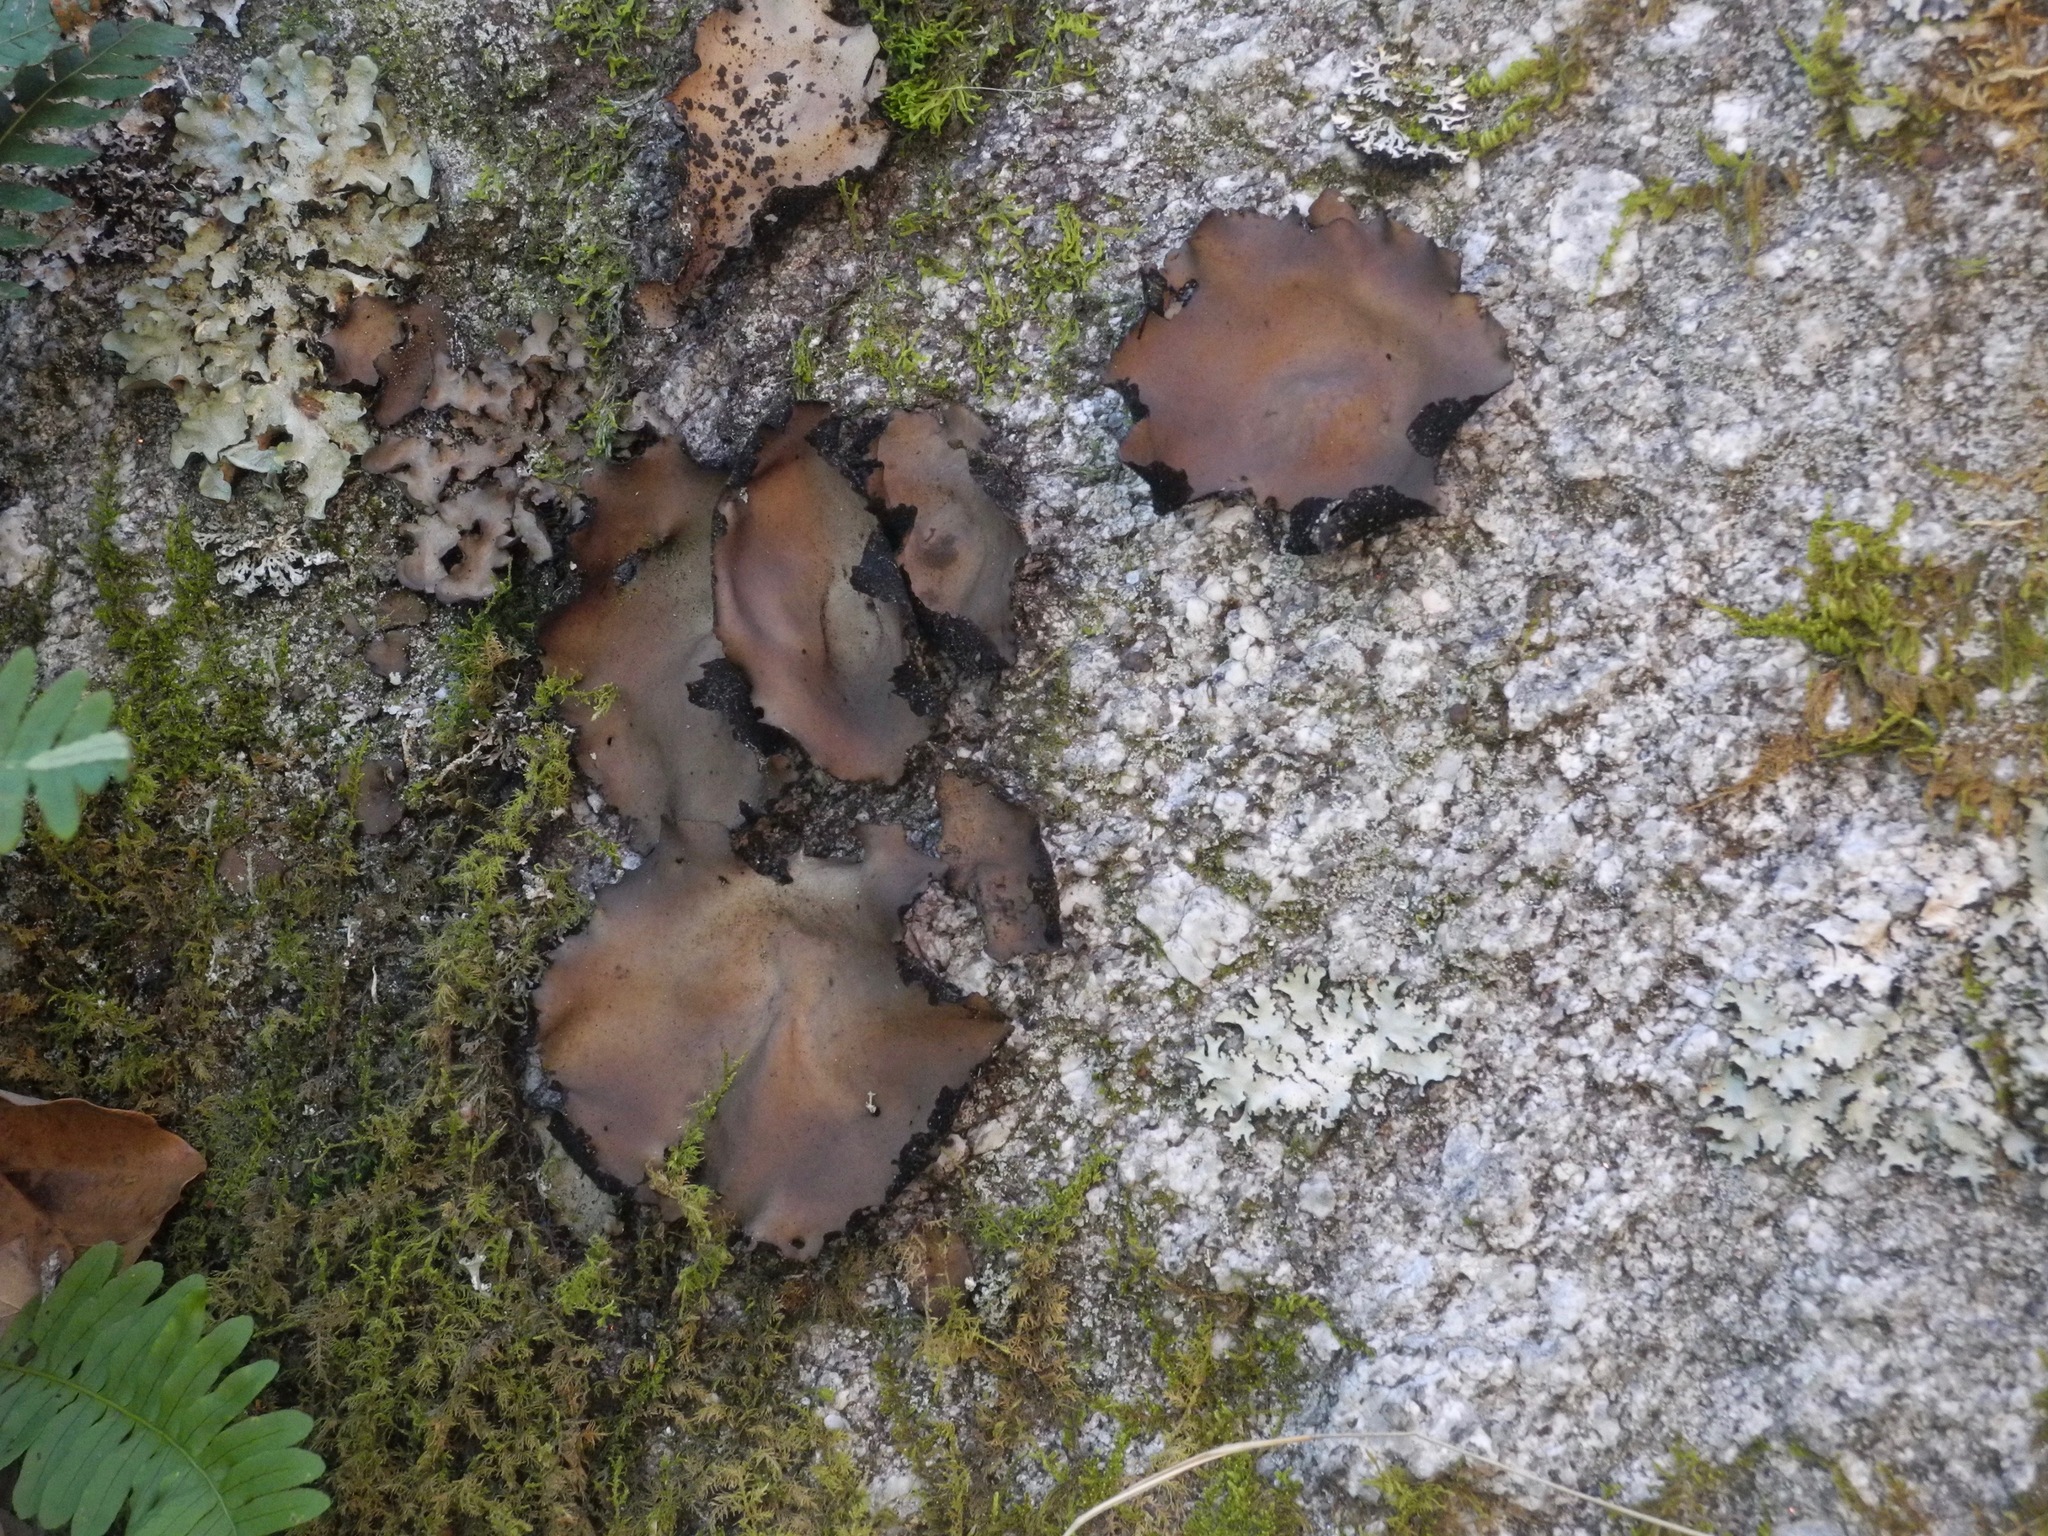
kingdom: Fungi
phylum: Ascomycota
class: Lecanoromycetes
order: Umbilicariales
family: Umbilicariaceae
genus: Umbilicaria
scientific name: Umbilicaria mammulata
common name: Smooth rock tripe
